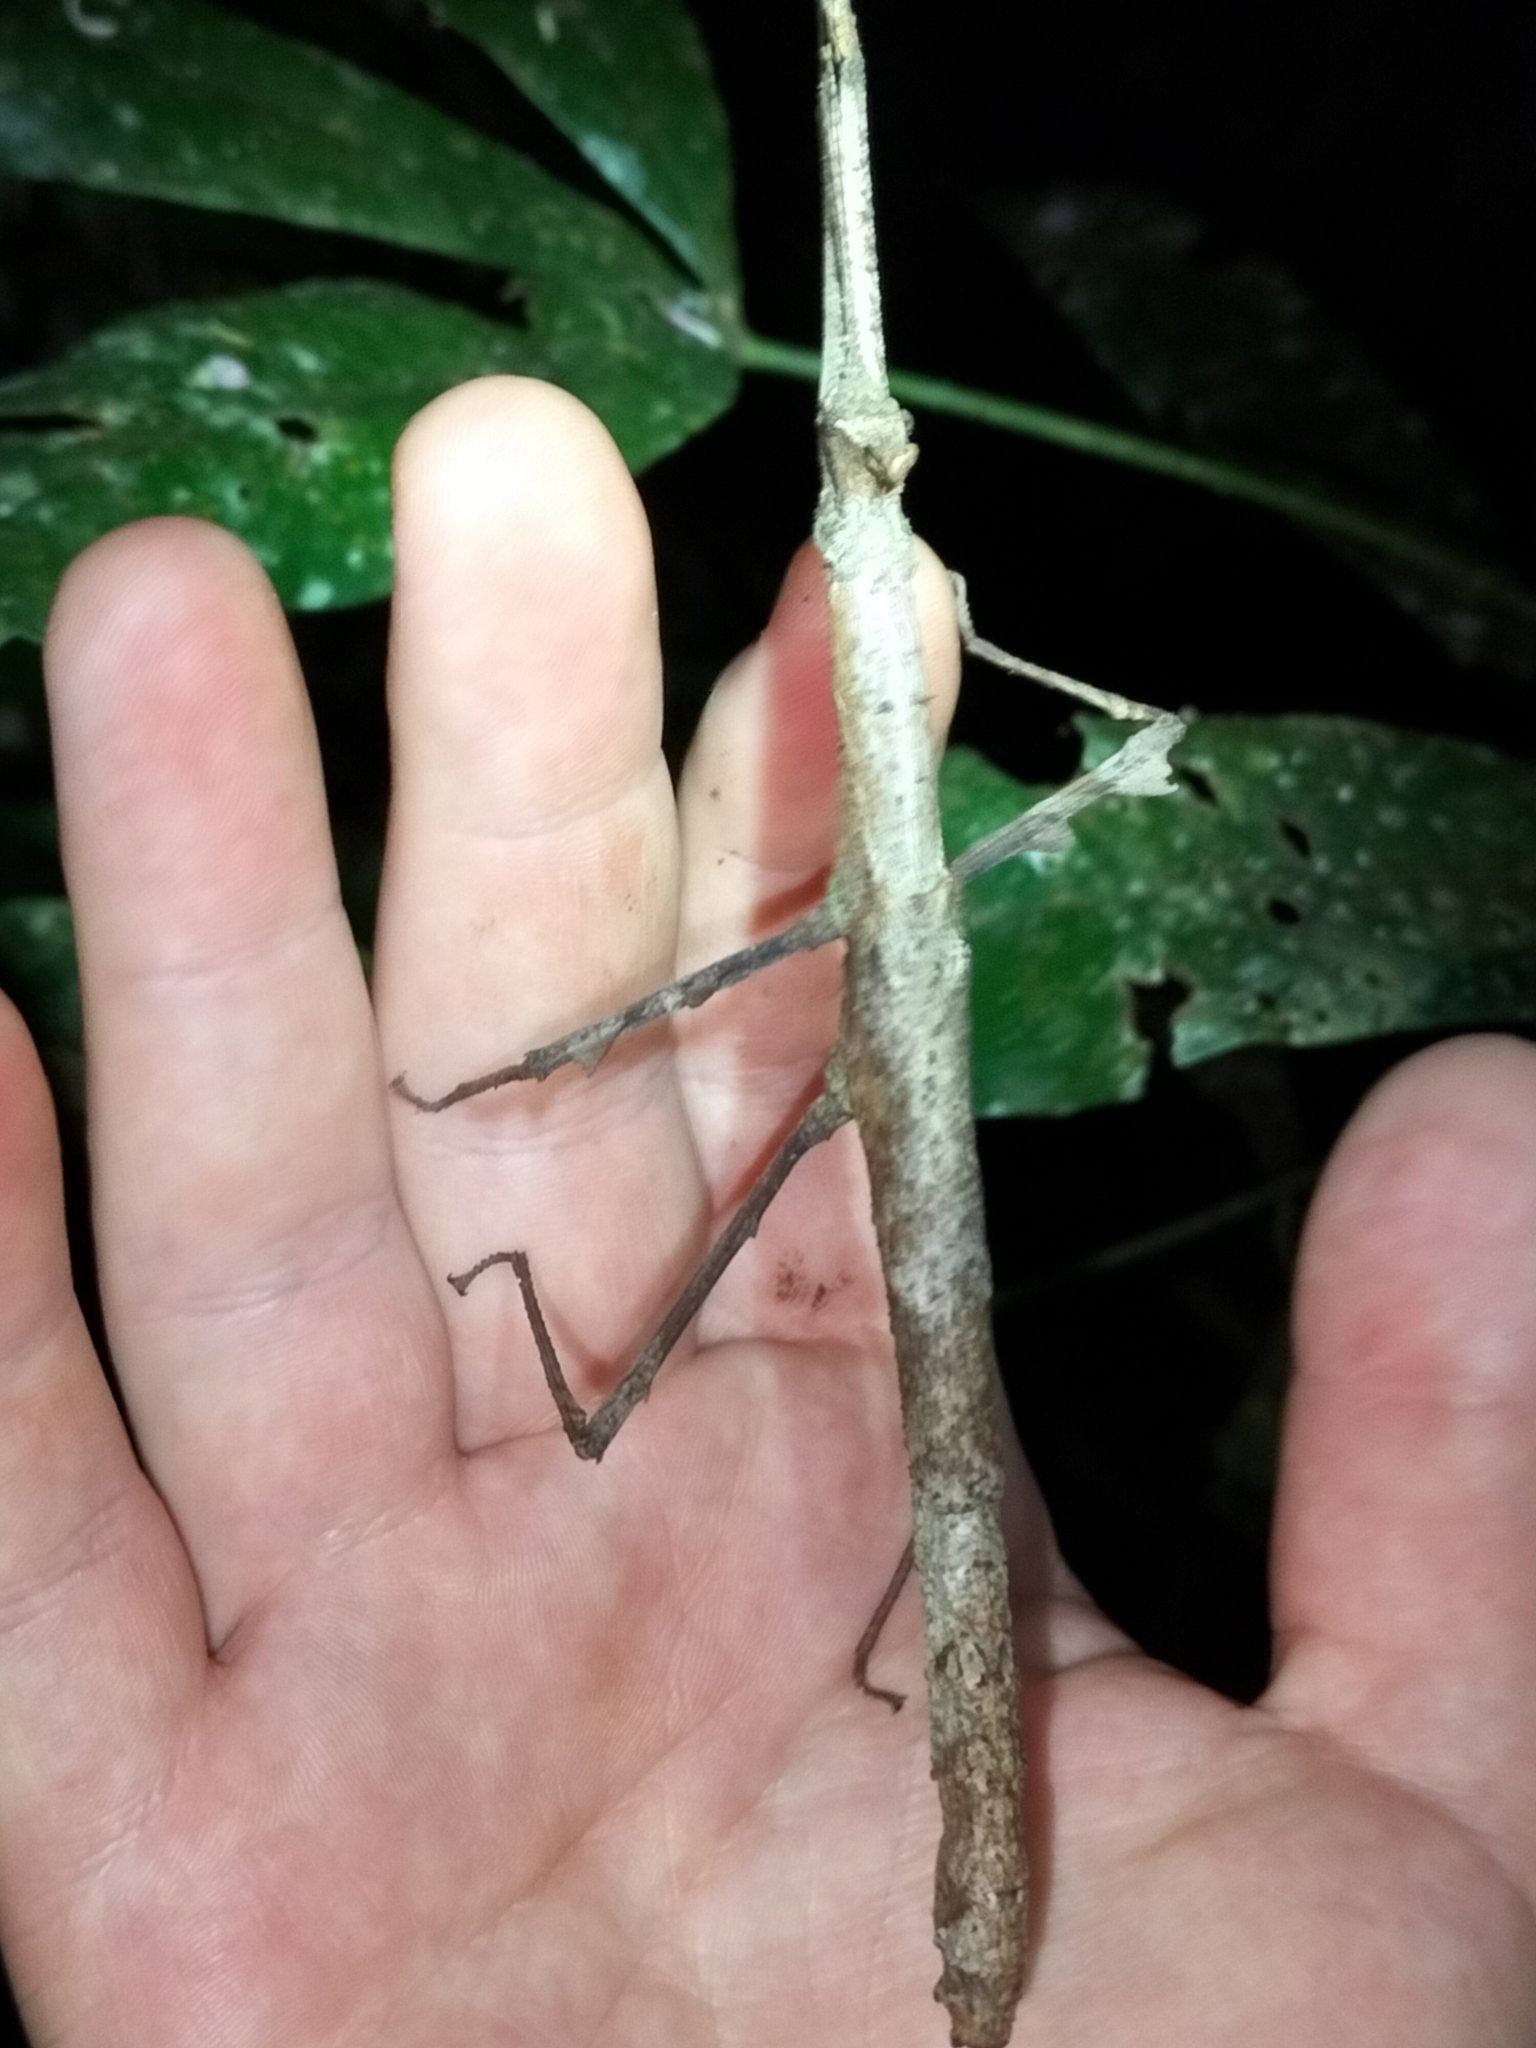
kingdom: Animalia
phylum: Arthropoda
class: Insecta
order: Phasmida
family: Phasmatidae
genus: Onchestus
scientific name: Onchestus rentzi
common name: Rentz's stick-insect
